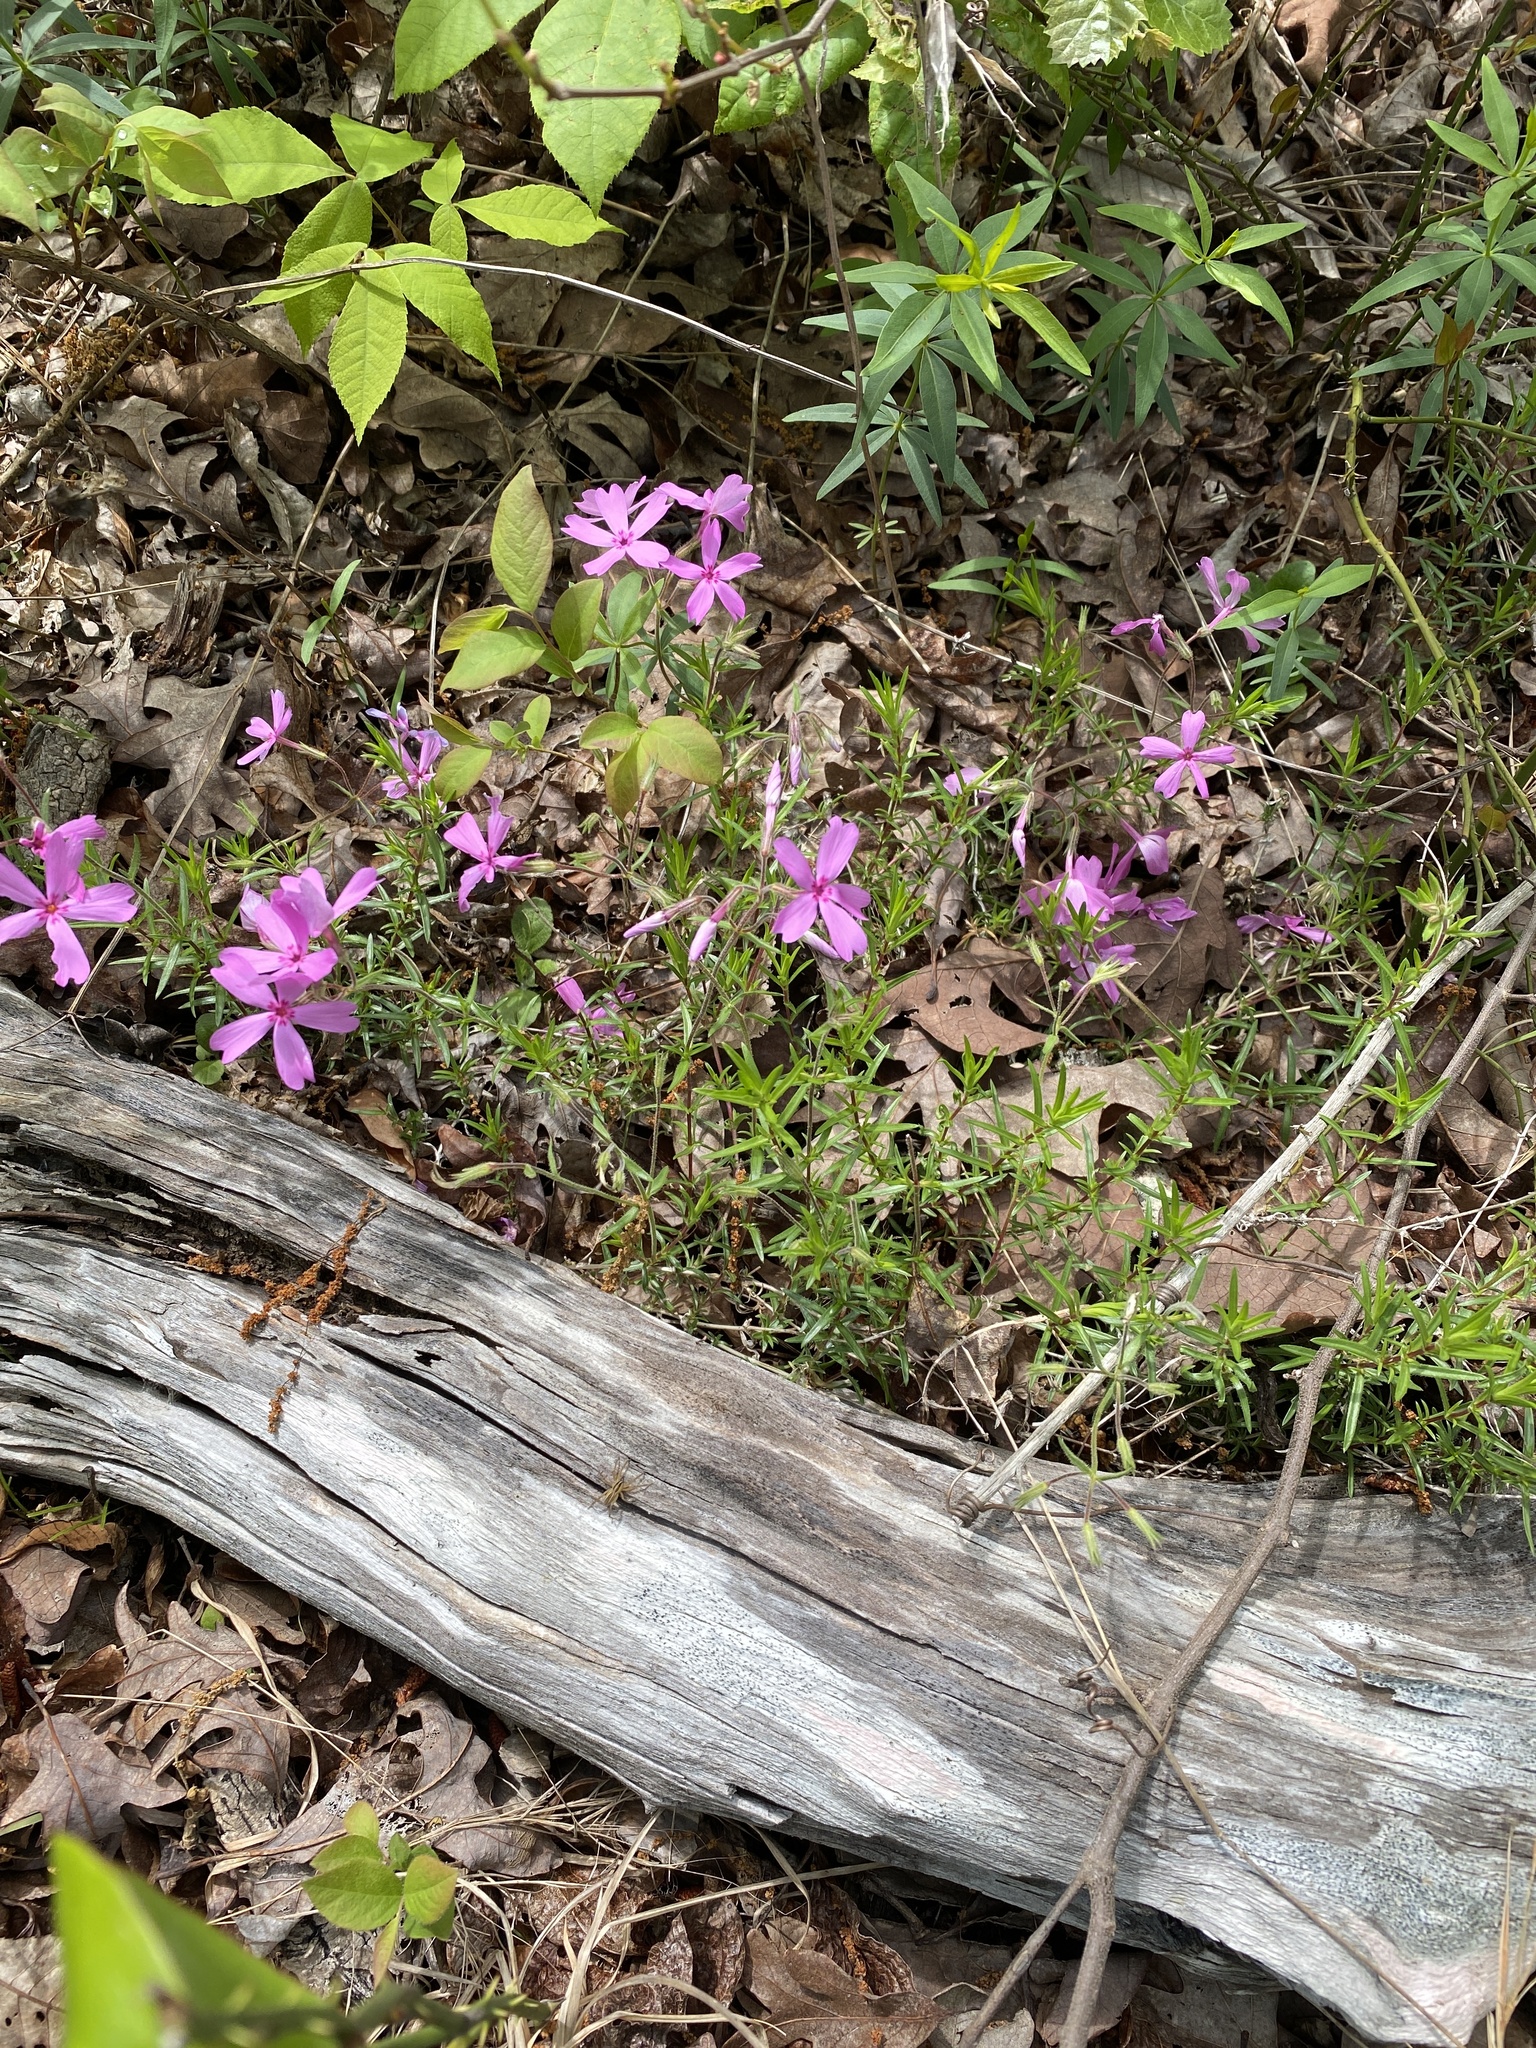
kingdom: Plantae
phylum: Tracheophyta
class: Magnoliopsida
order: Ericales
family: Polemoniaceae
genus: Phlox
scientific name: Phlox nivalis
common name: Trailing phlox
